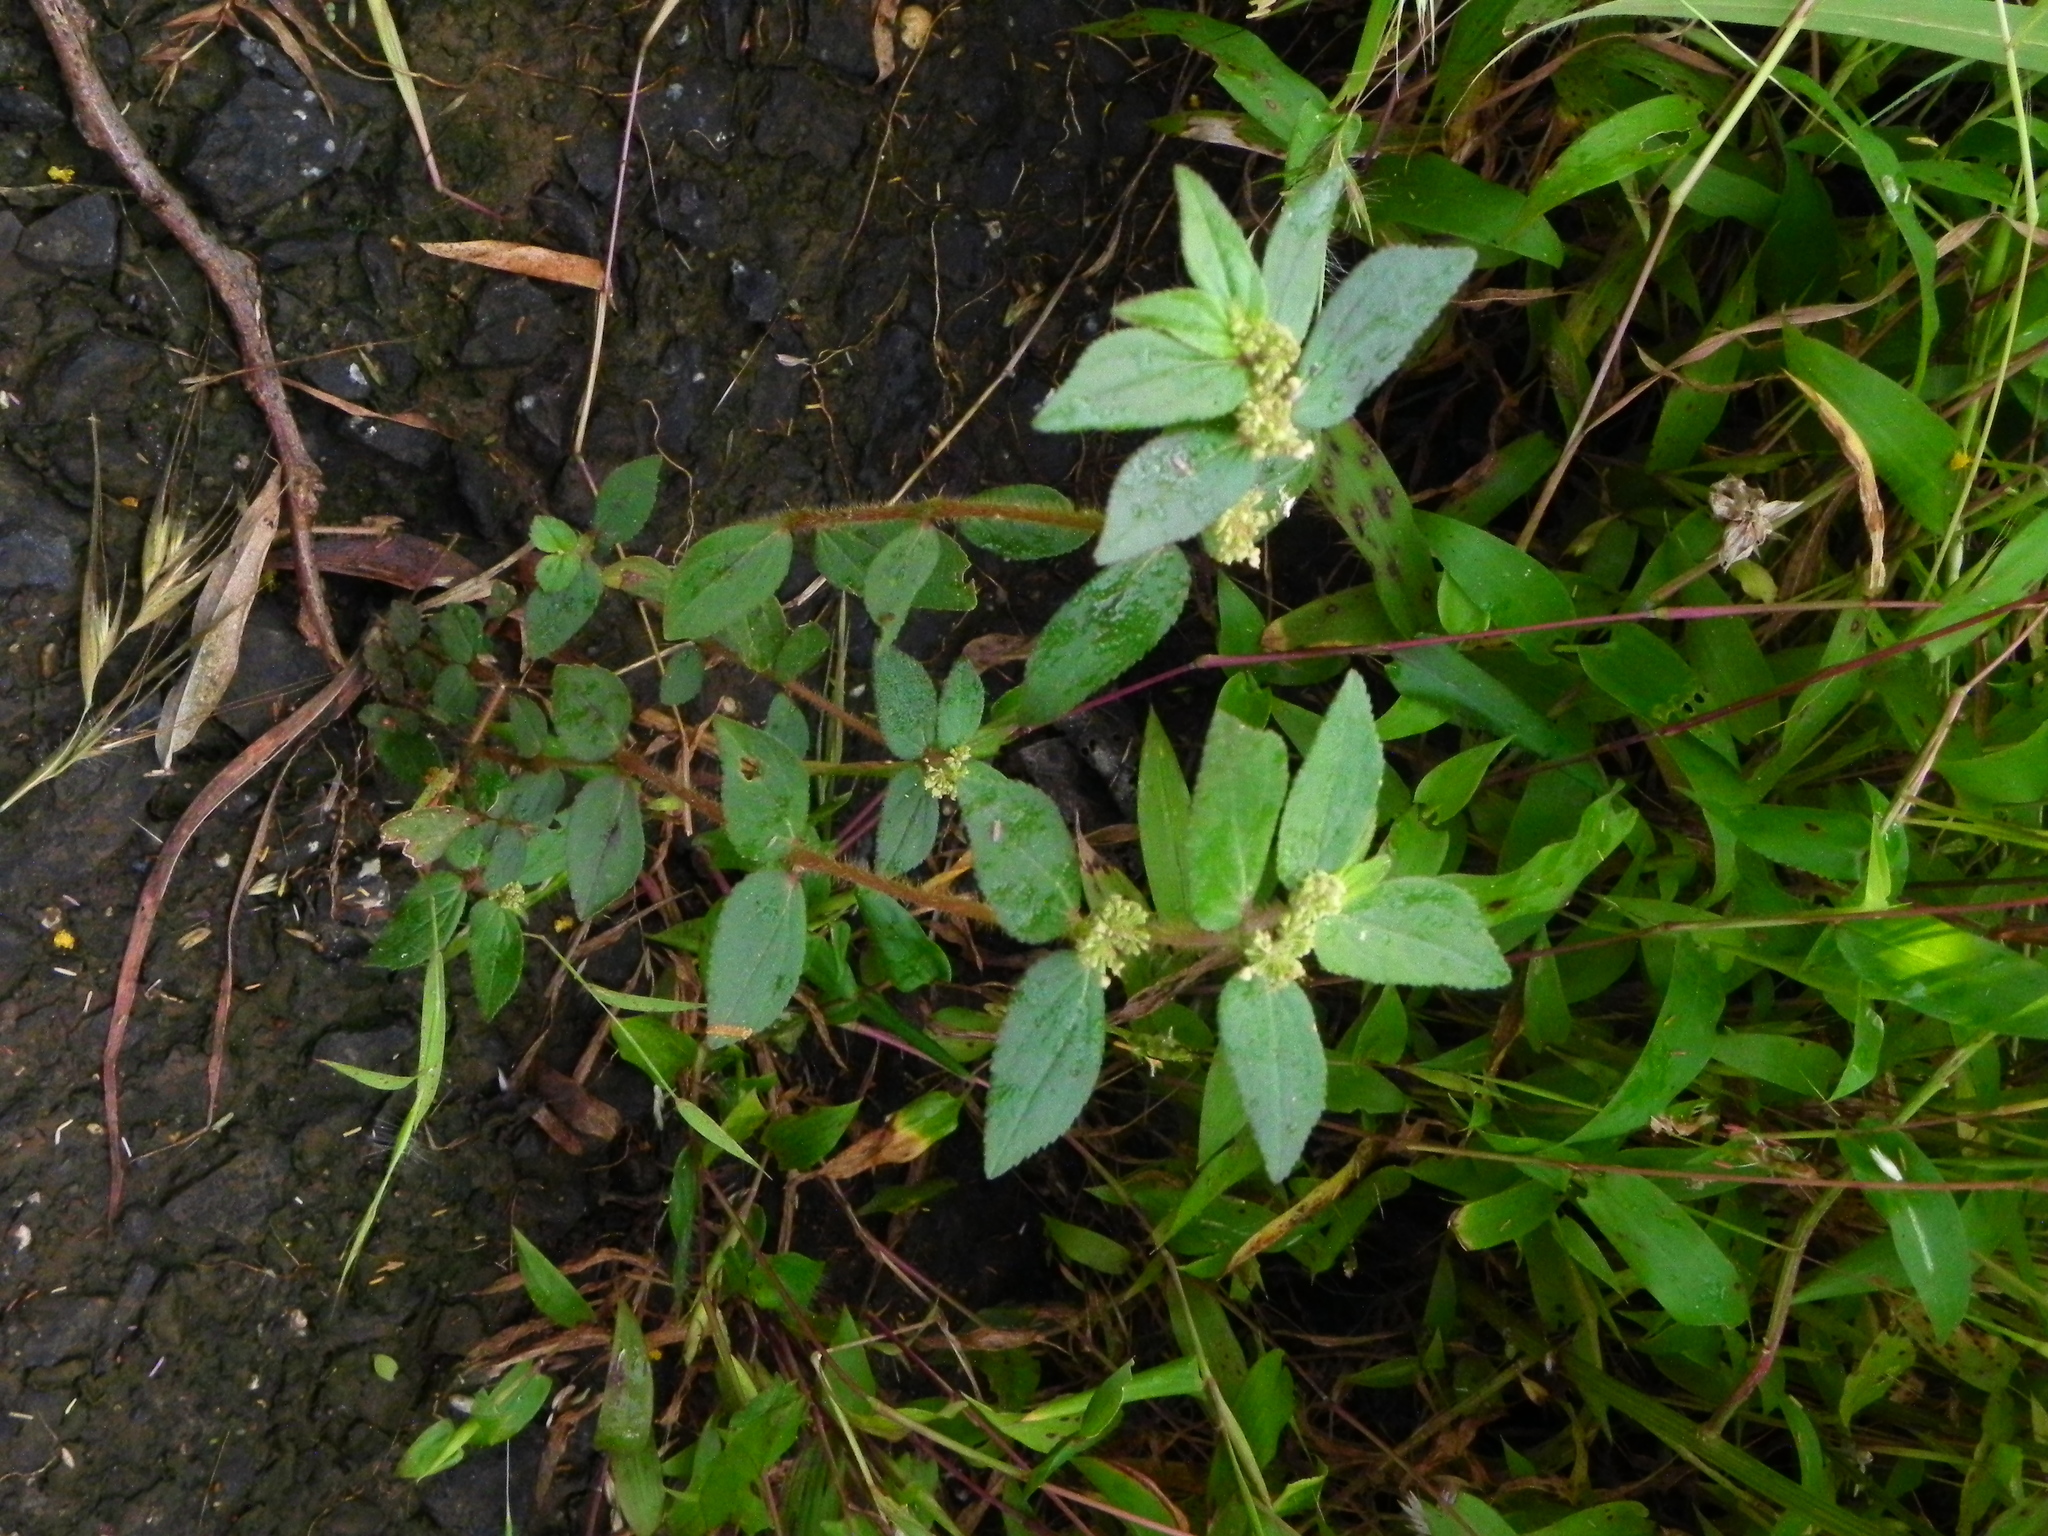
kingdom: Plantae
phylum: Tracheophyta
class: Magnoliopsida
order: Malpighiales
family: Euphorbiaceae
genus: Euphorbia
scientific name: Euphorbia hirta
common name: Pillpod sandmat
